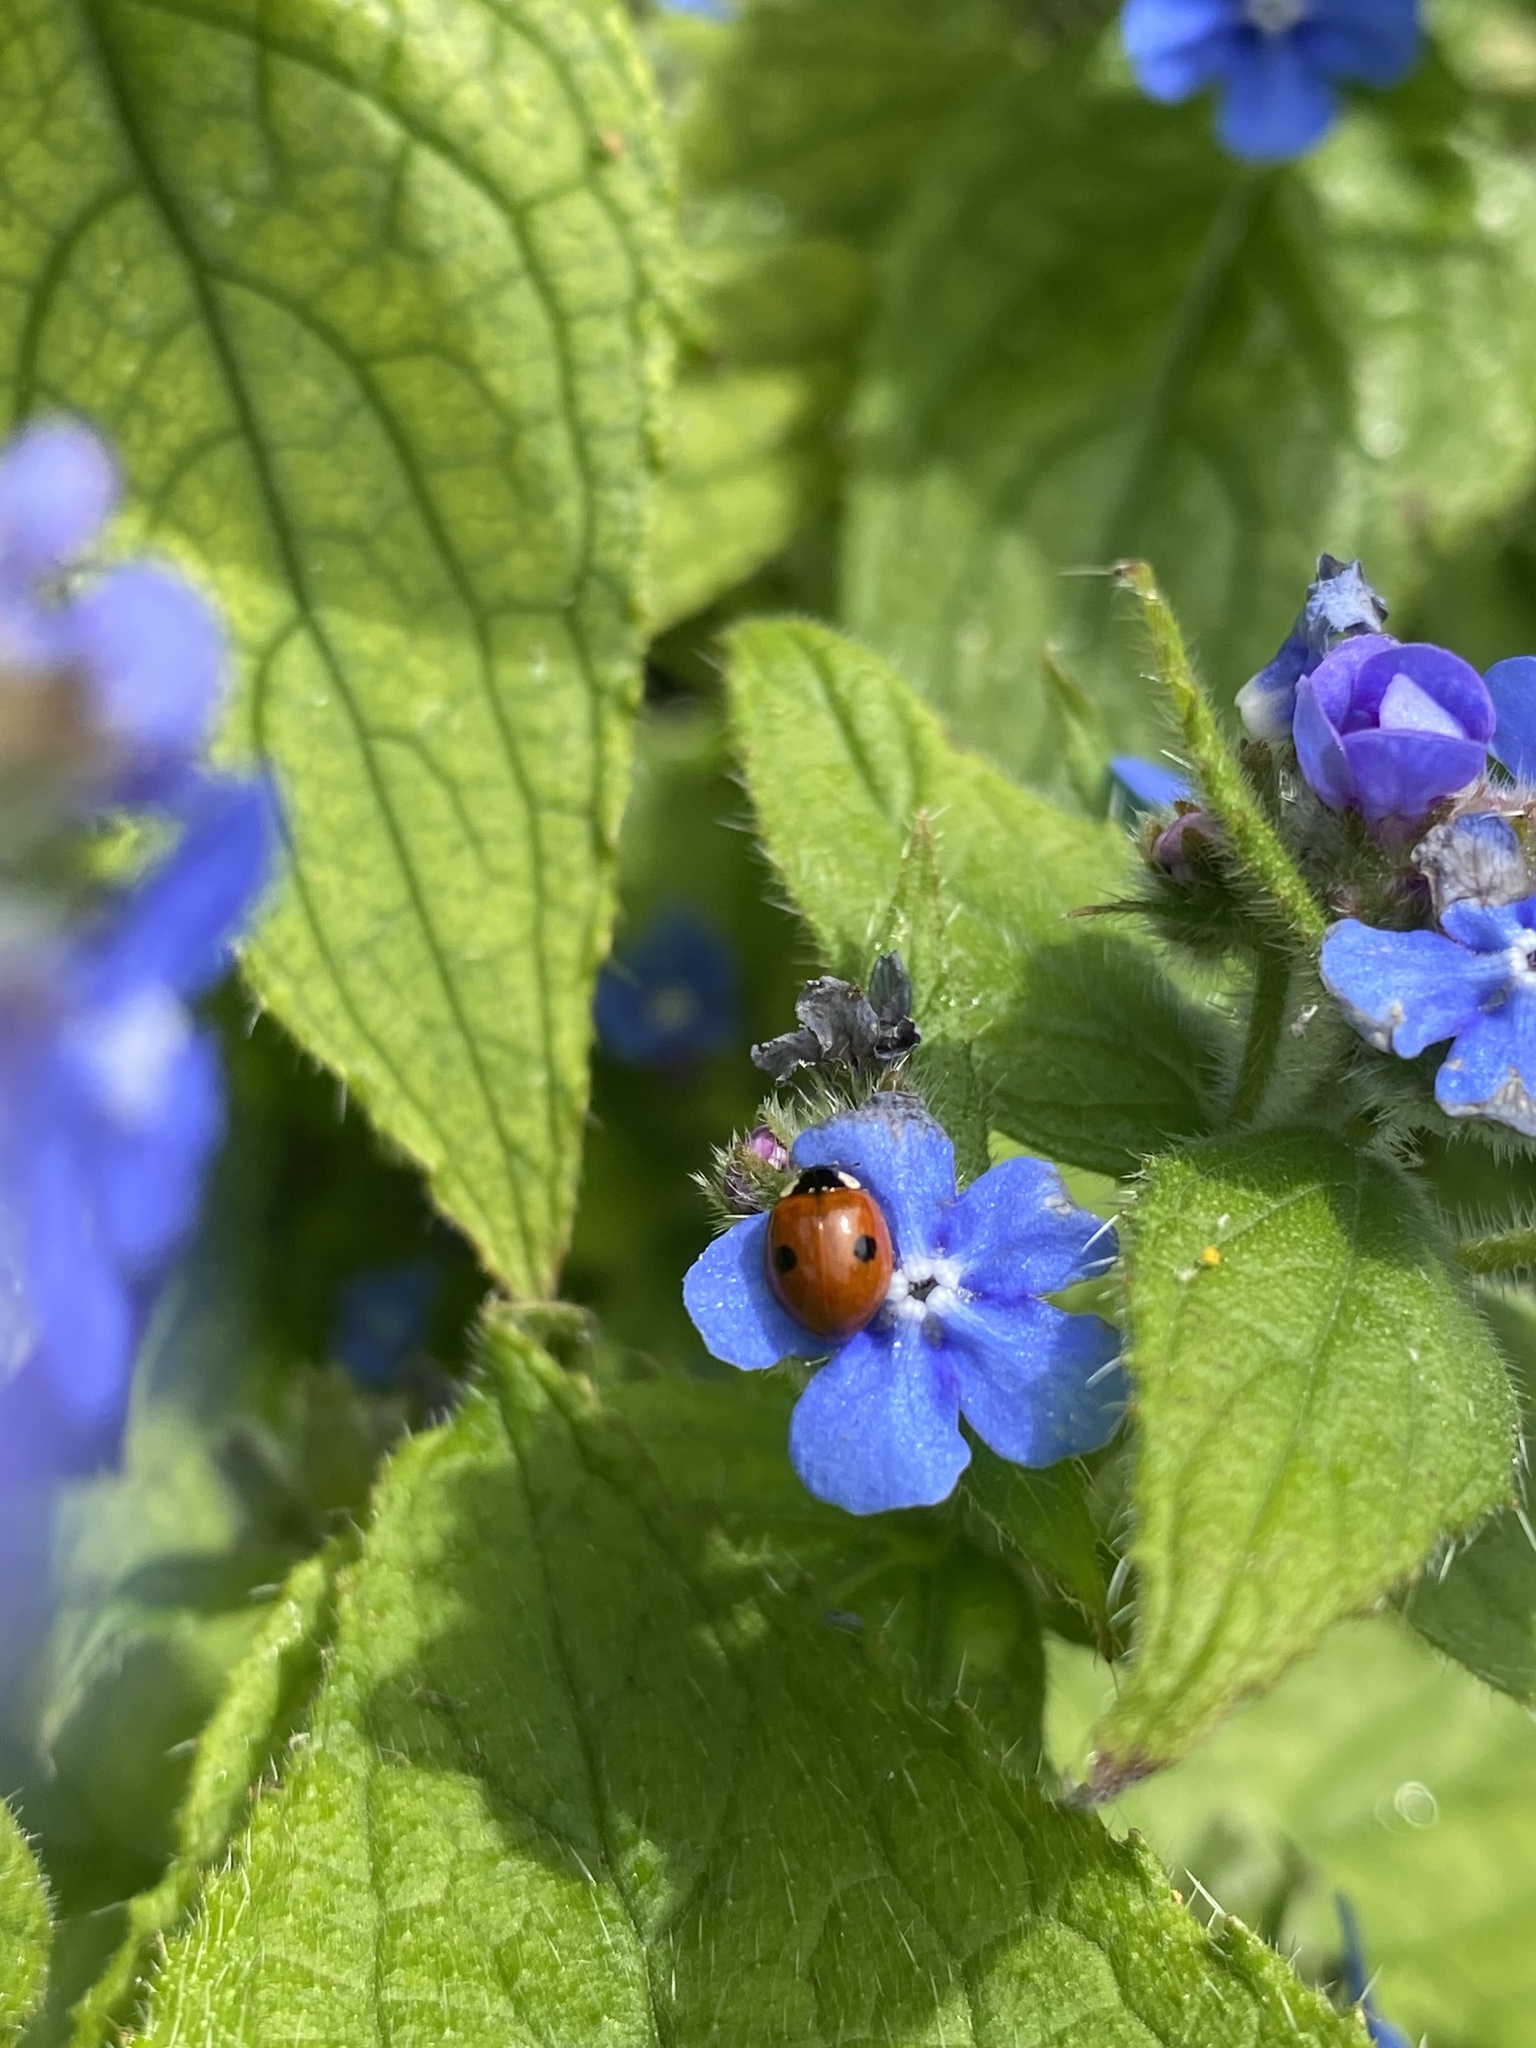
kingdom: Animalia
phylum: Arthropoda
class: Insecta
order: Coleoptera
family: Coccinellidae
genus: Adalia
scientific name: Adalia bipunctata
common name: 2-spot ladybird
